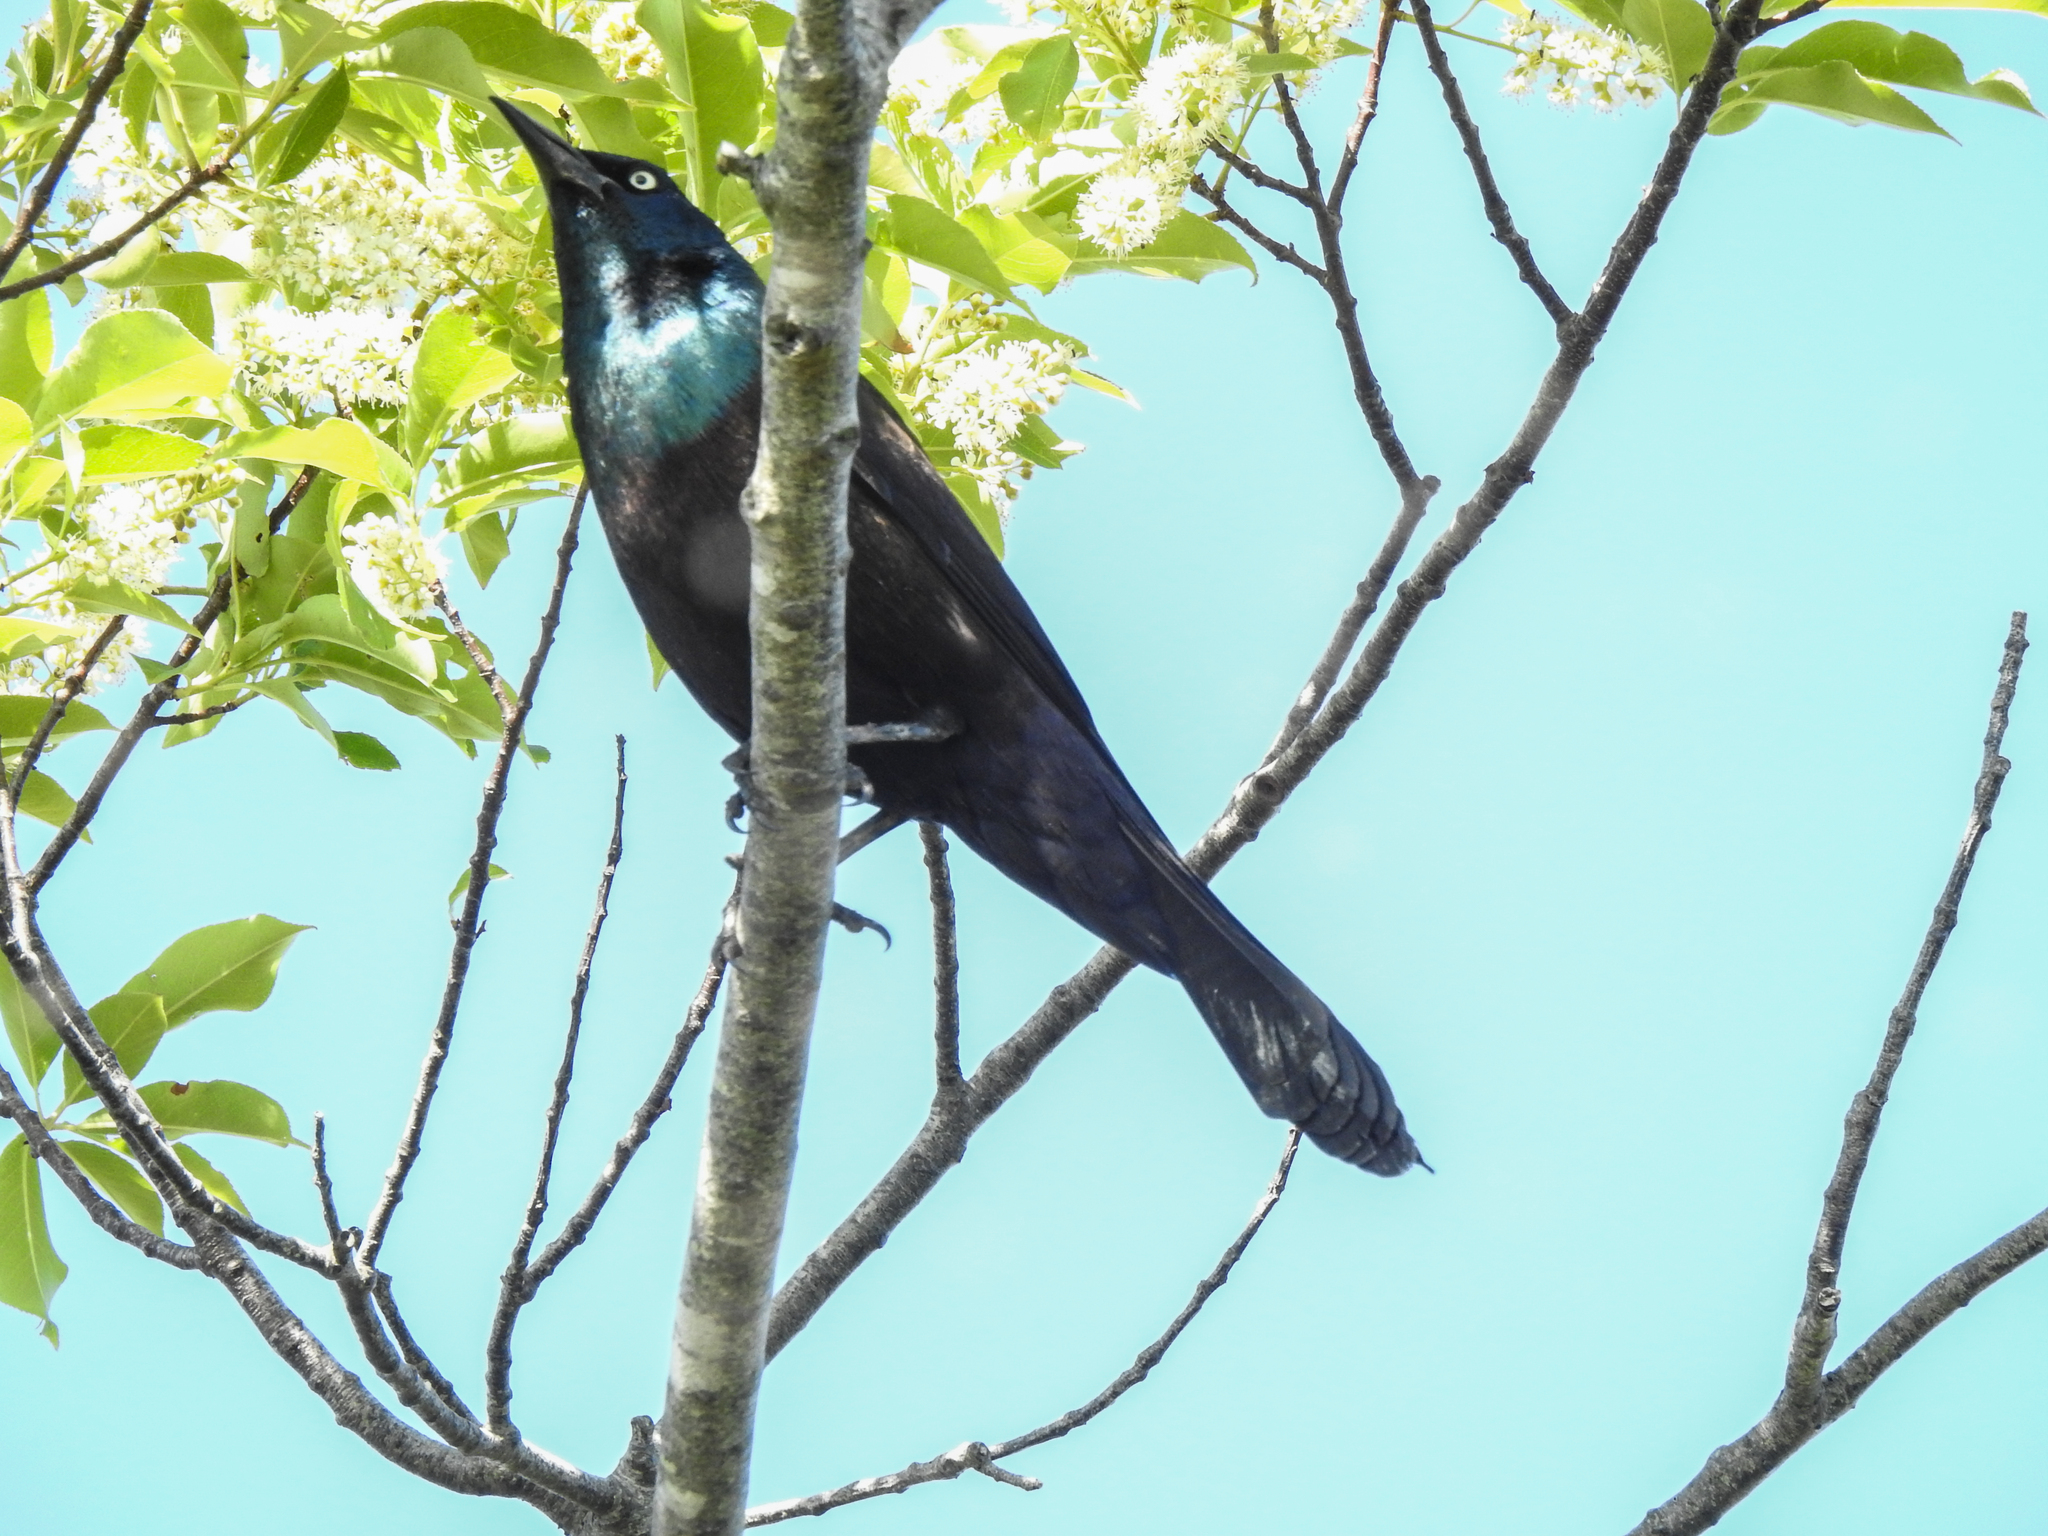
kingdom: Animalia
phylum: Chordata
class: Aves
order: Passeriformes
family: Icteridae
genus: Quiscalus
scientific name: Quiscalus quiscula
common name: Common grackle
